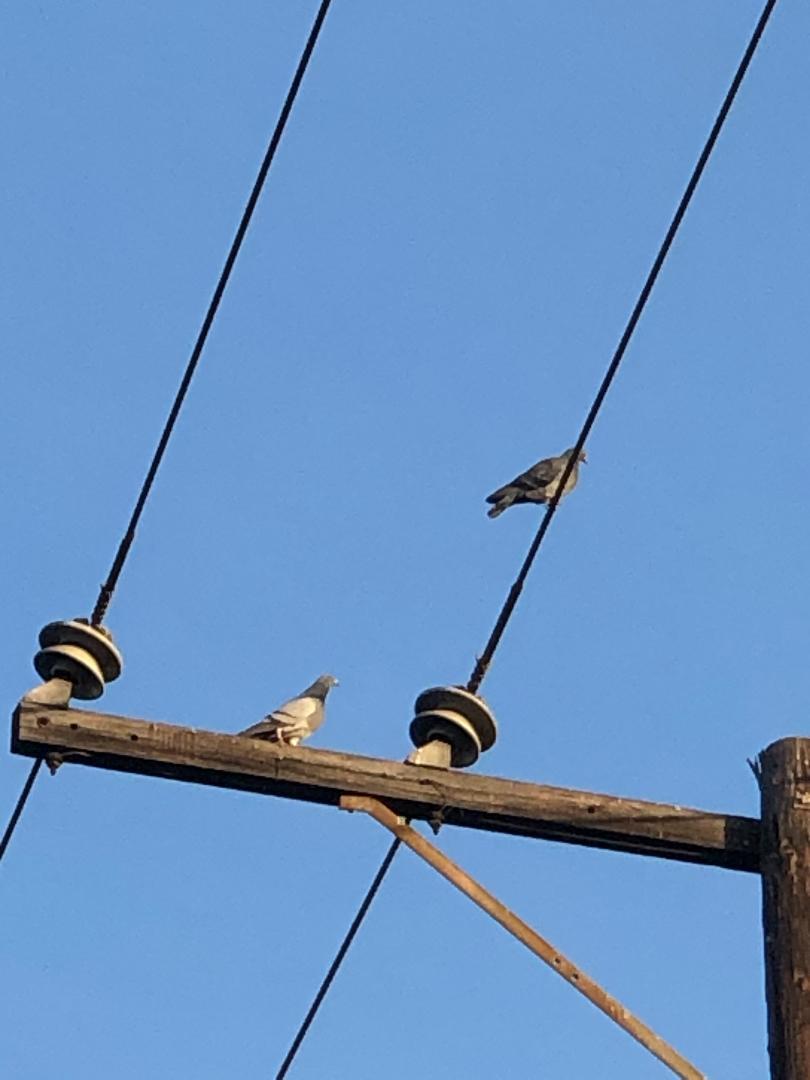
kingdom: Animalia
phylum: Chordata
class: Aves
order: Columbiformes
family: Columbidae
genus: Columba
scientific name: Columba livia
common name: Rock pigeon
